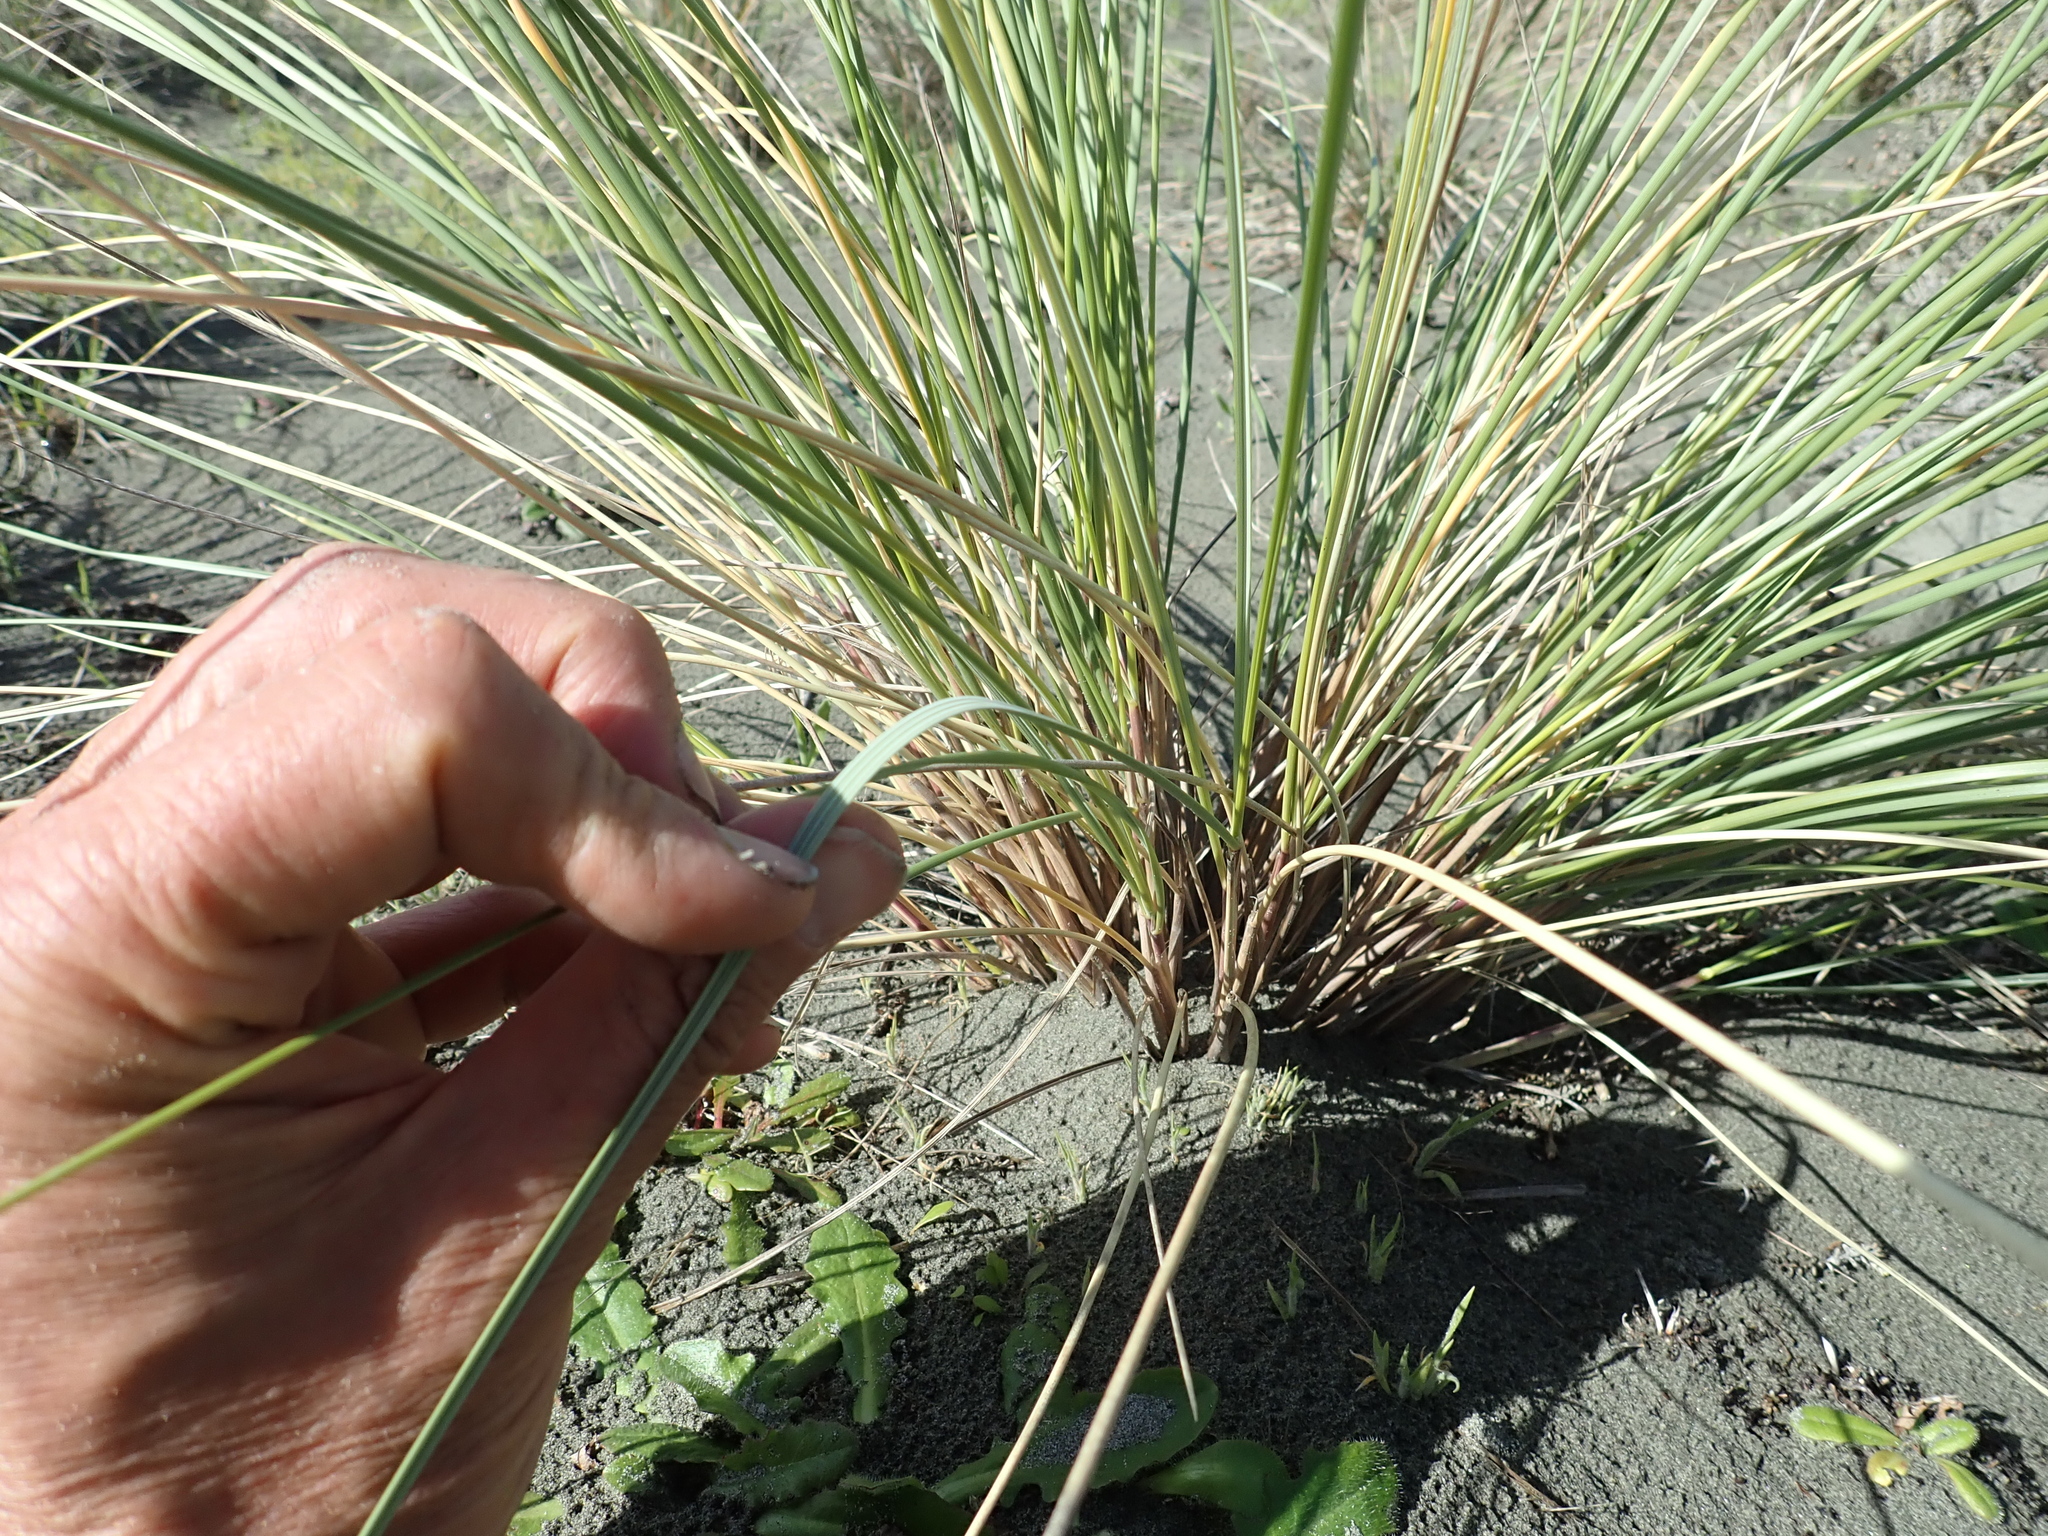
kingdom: Plantae
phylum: Tracheophyta
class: Liliopsida
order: Poales
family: Poaceae
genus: Calamagrostis
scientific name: Calamagrostis arenaria
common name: European beachgrass
